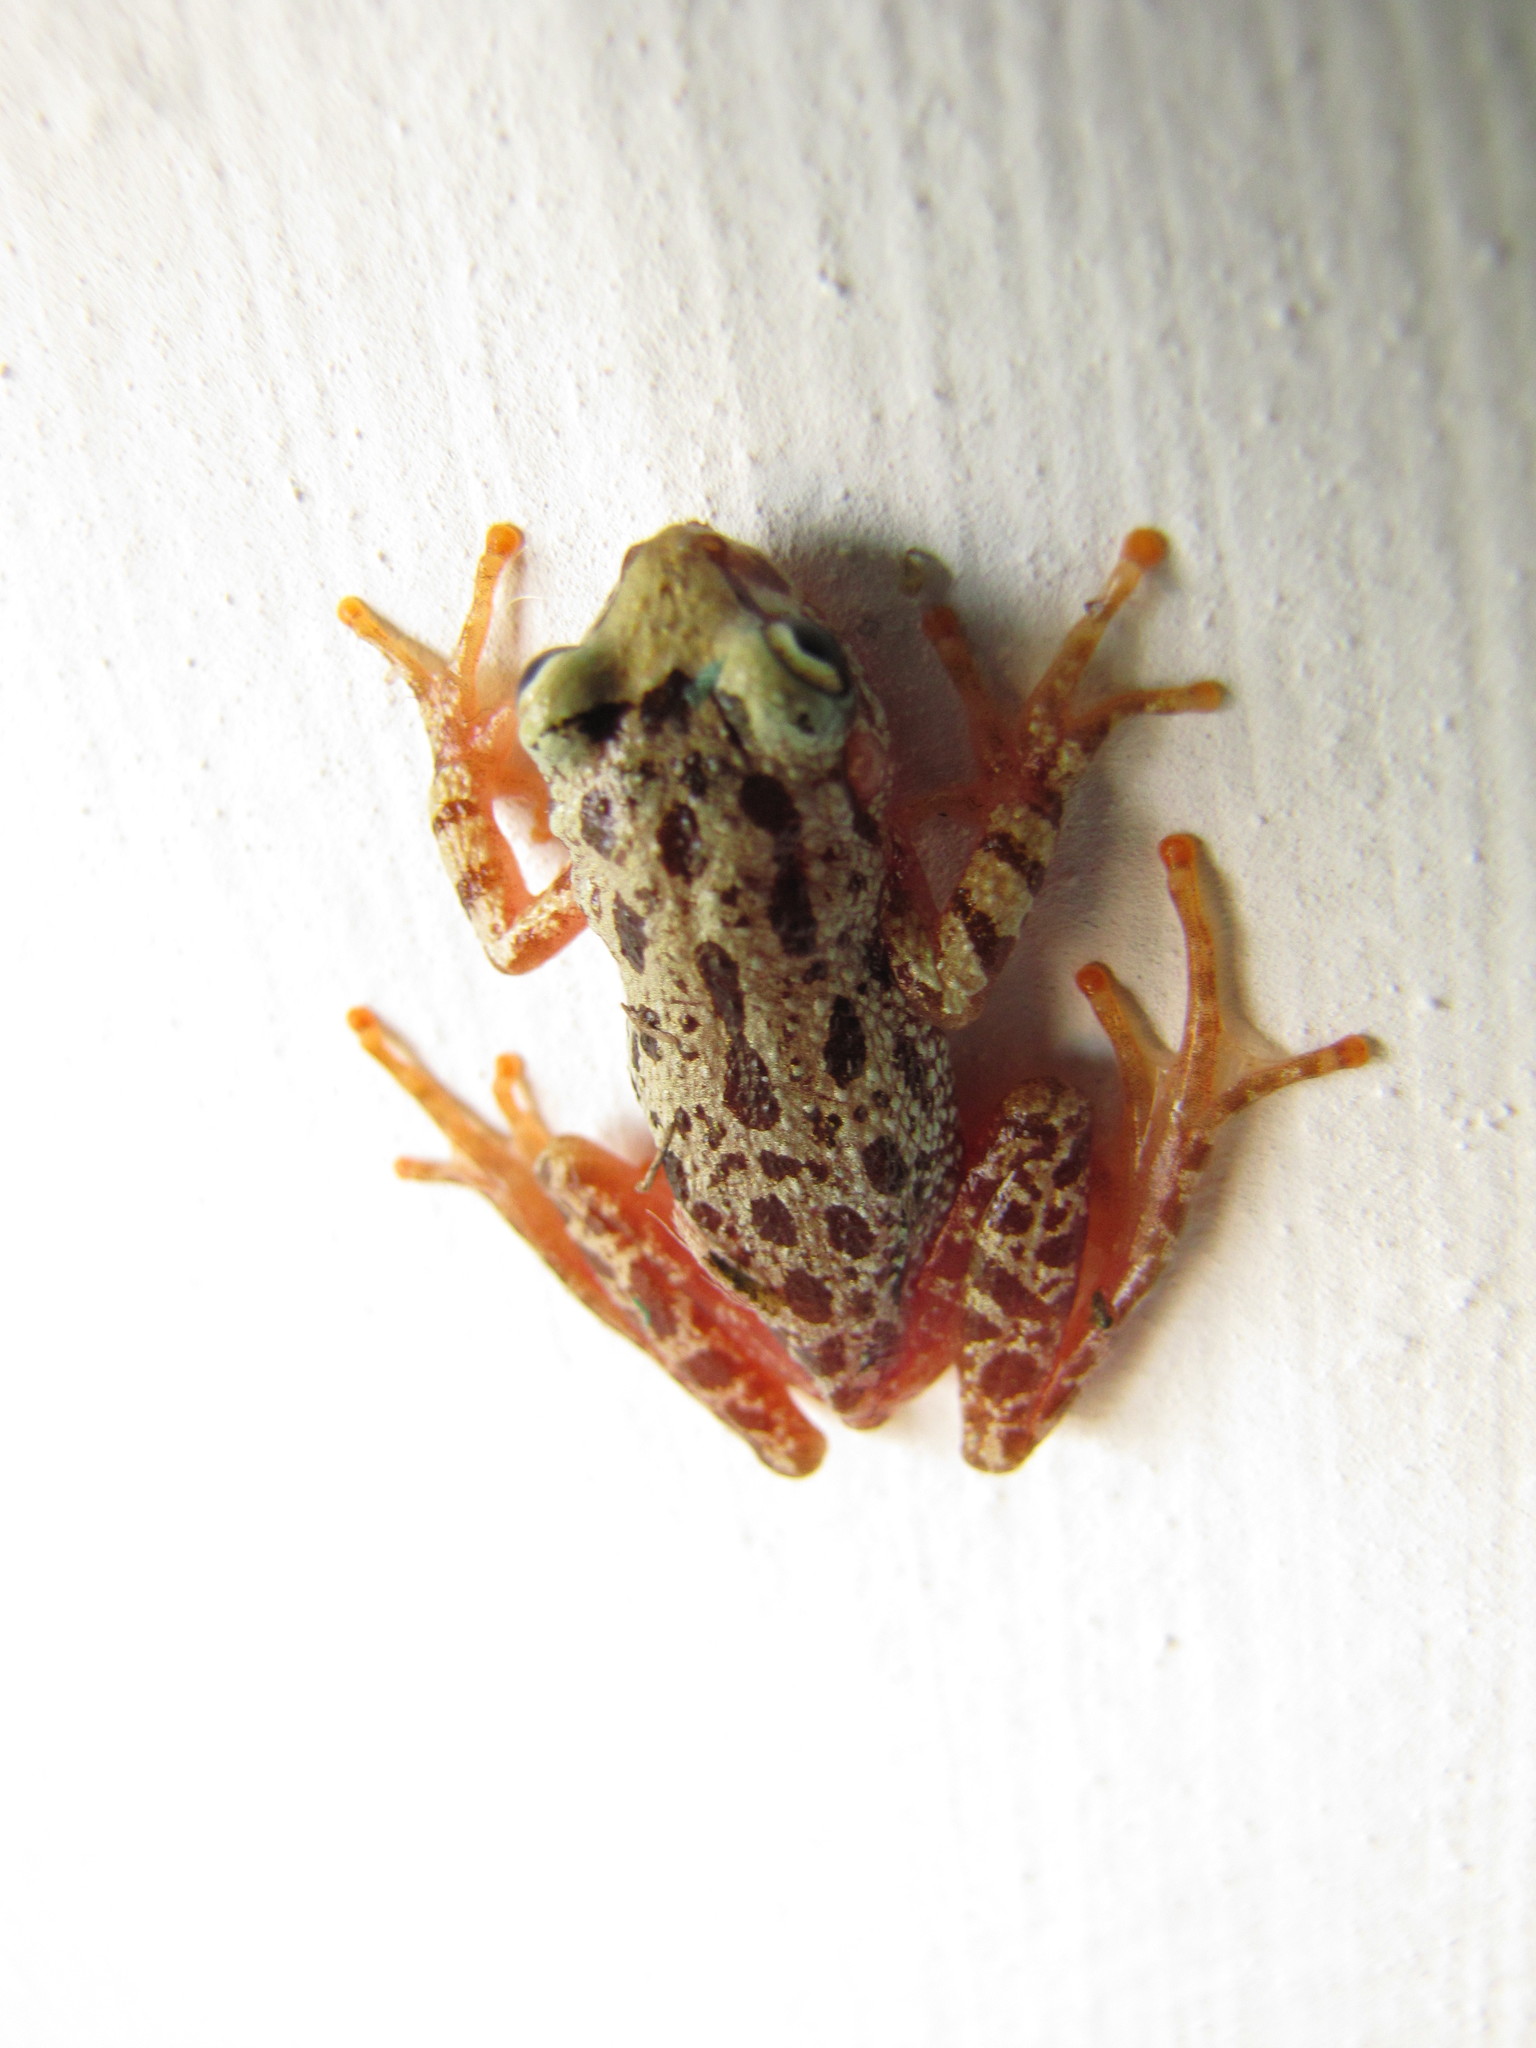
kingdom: Animalia
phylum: Chordata
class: Amphibia
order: Anura
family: Hylidae
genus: Julianus
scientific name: Julianus uruguayus
